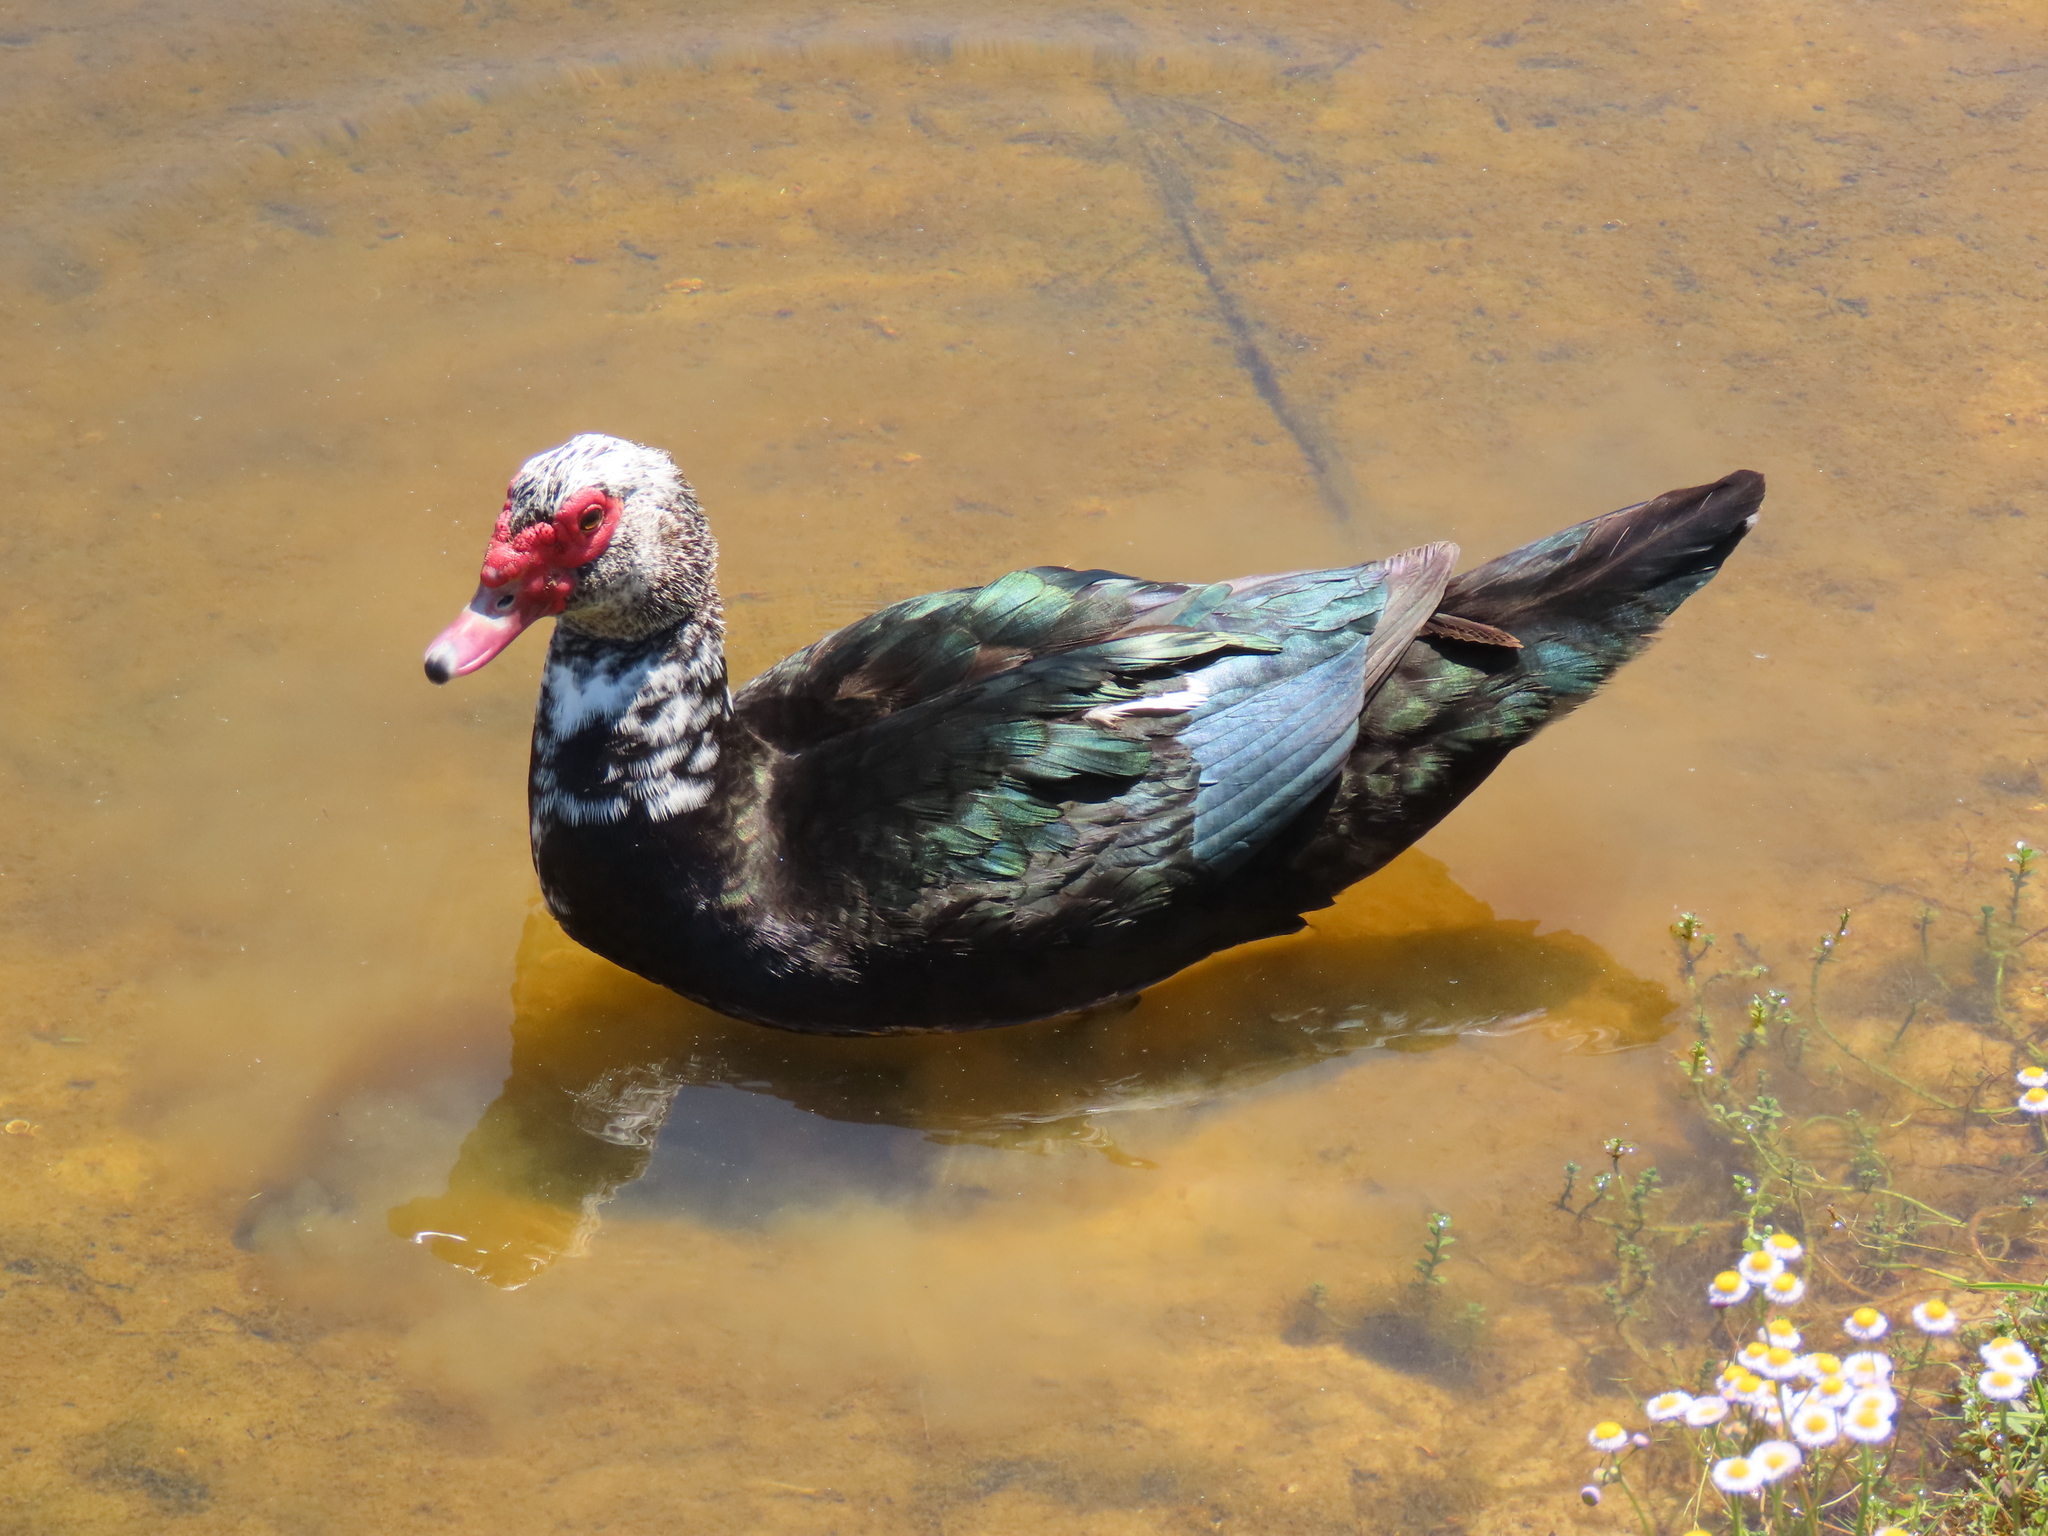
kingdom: Animalia
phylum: Chordata
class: Aves
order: Anseriformes
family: Anatidae
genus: Cairina
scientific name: Cairina moschata
